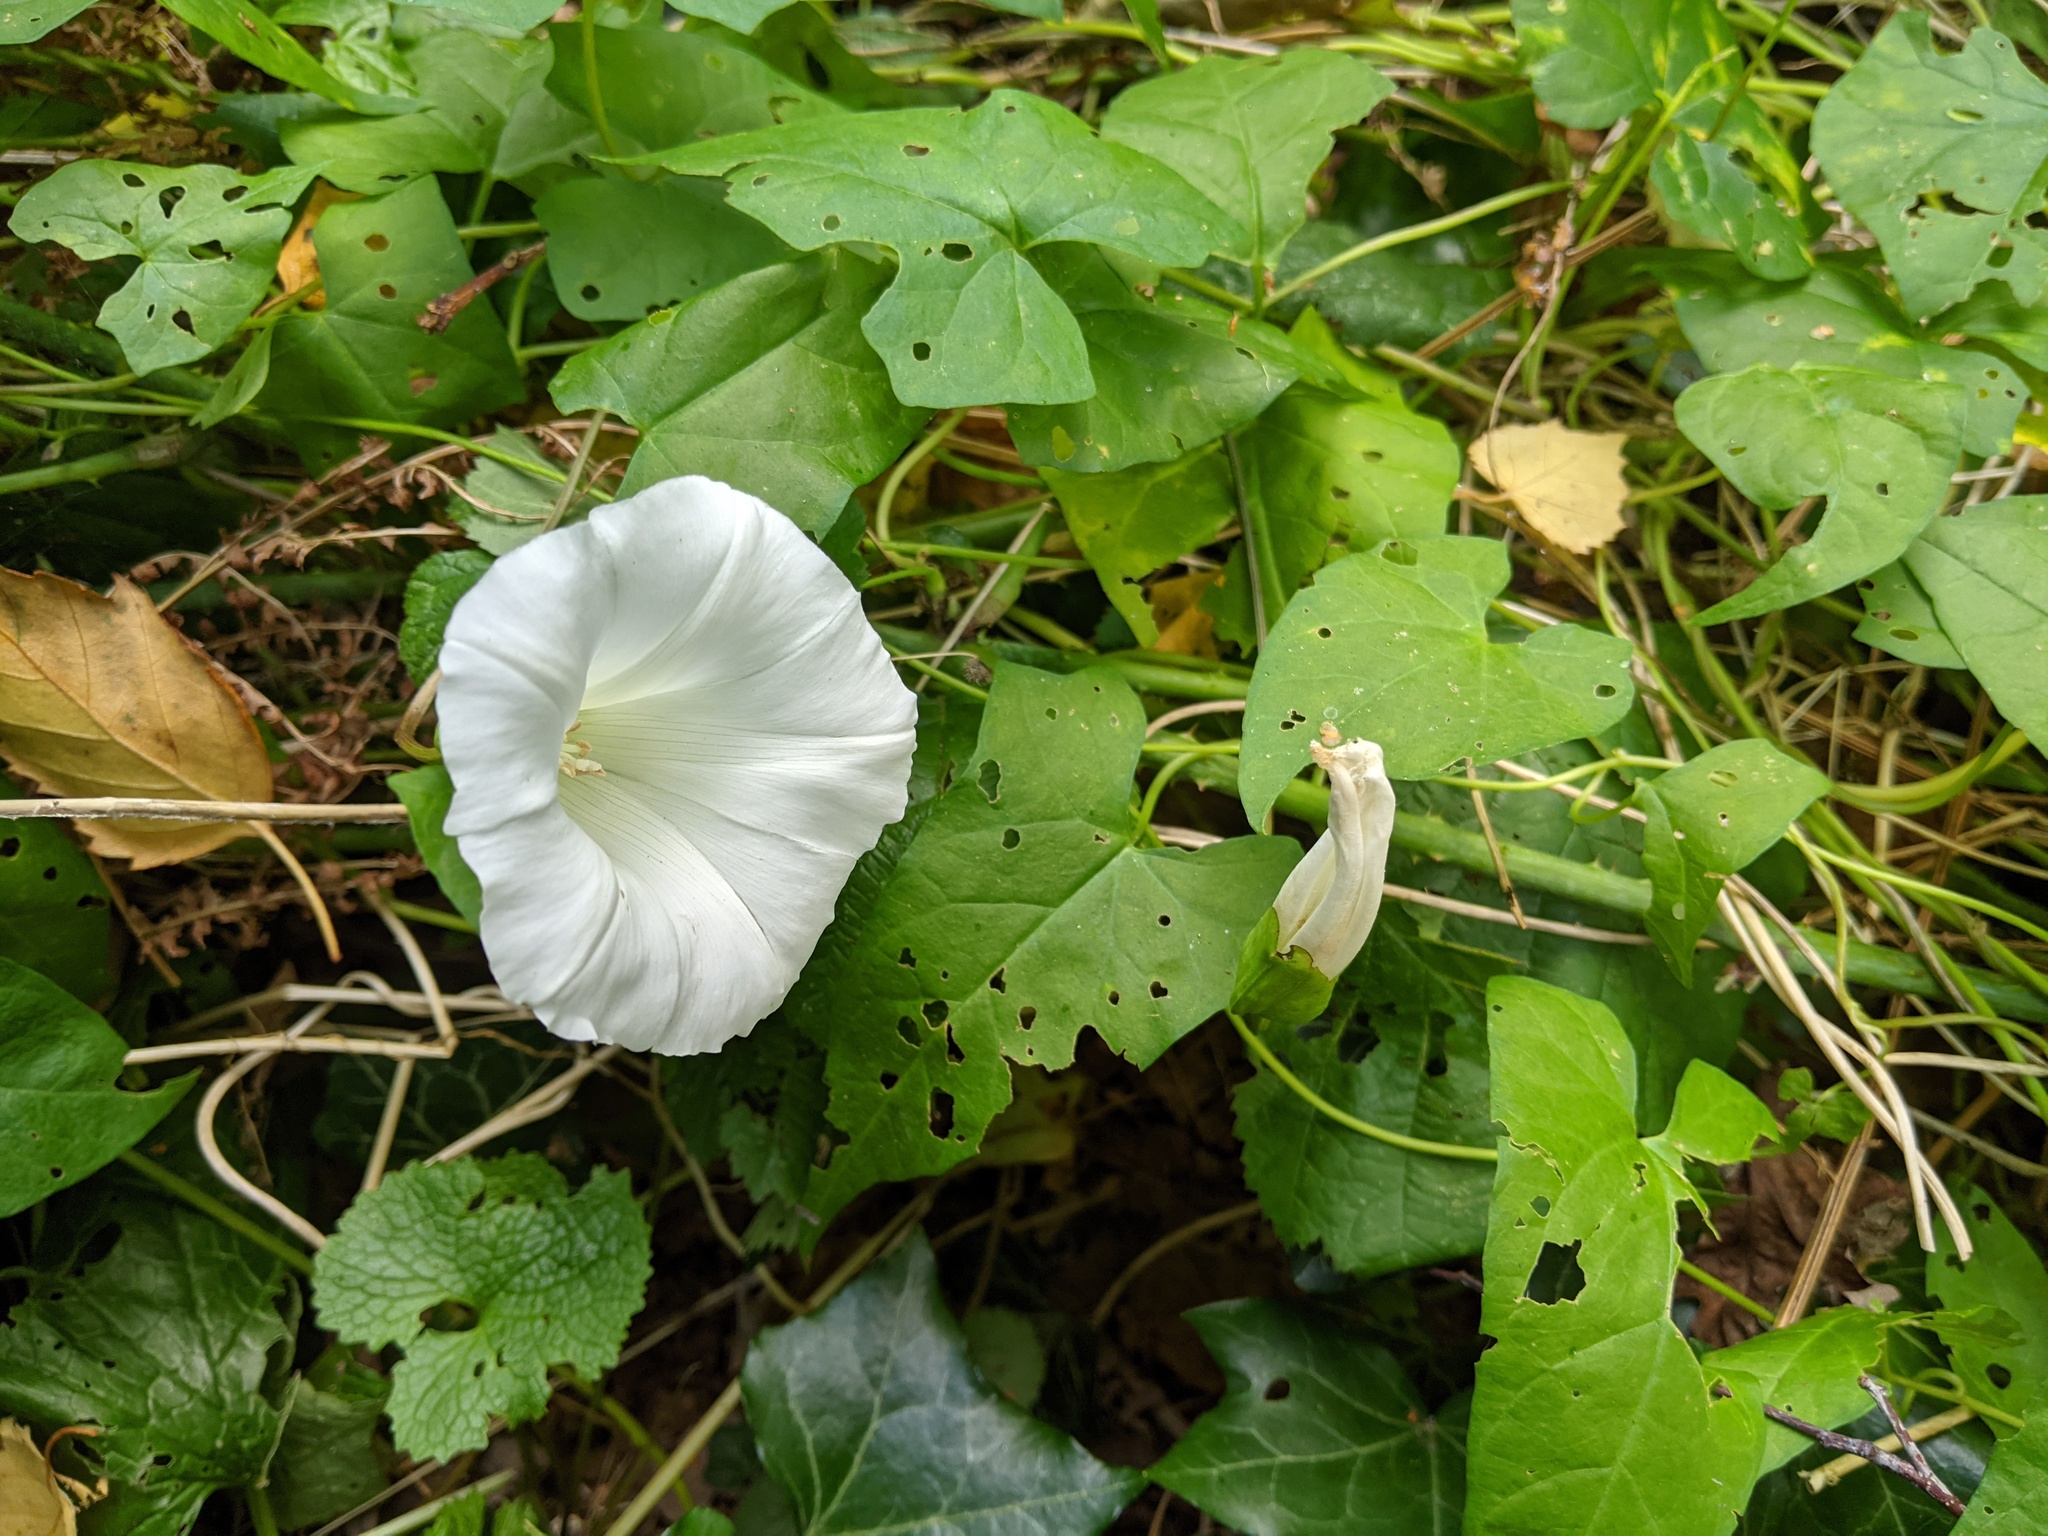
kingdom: Plantae
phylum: Tracheophyta
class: Magnoliopsida
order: Solanales
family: Convolvulaceae
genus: Calystegia
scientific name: Calystegia silvatica
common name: Large bindweed
